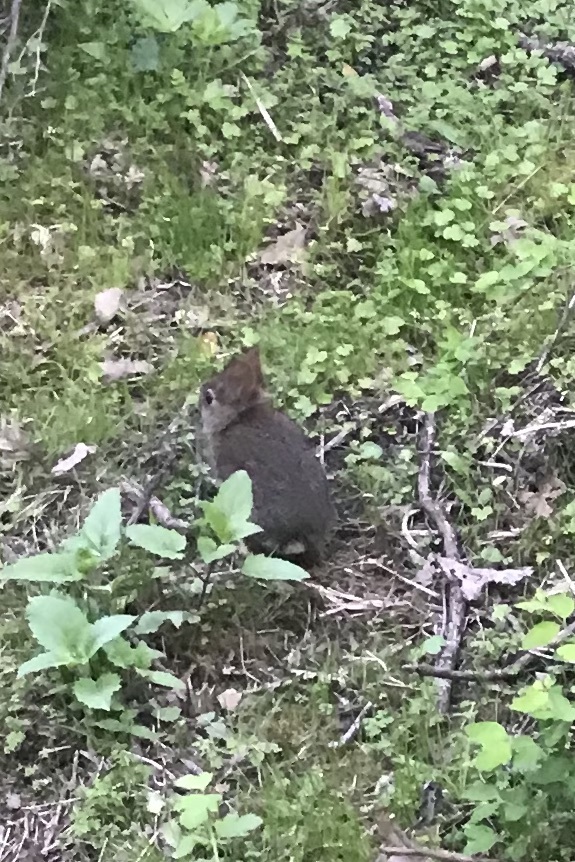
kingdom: Animalia
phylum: Chordata
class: Mammalia
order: Lagomorpha
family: Leporidae
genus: Sylvilagus
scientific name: Sylvilagus bachmani
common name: Brush rabbit
